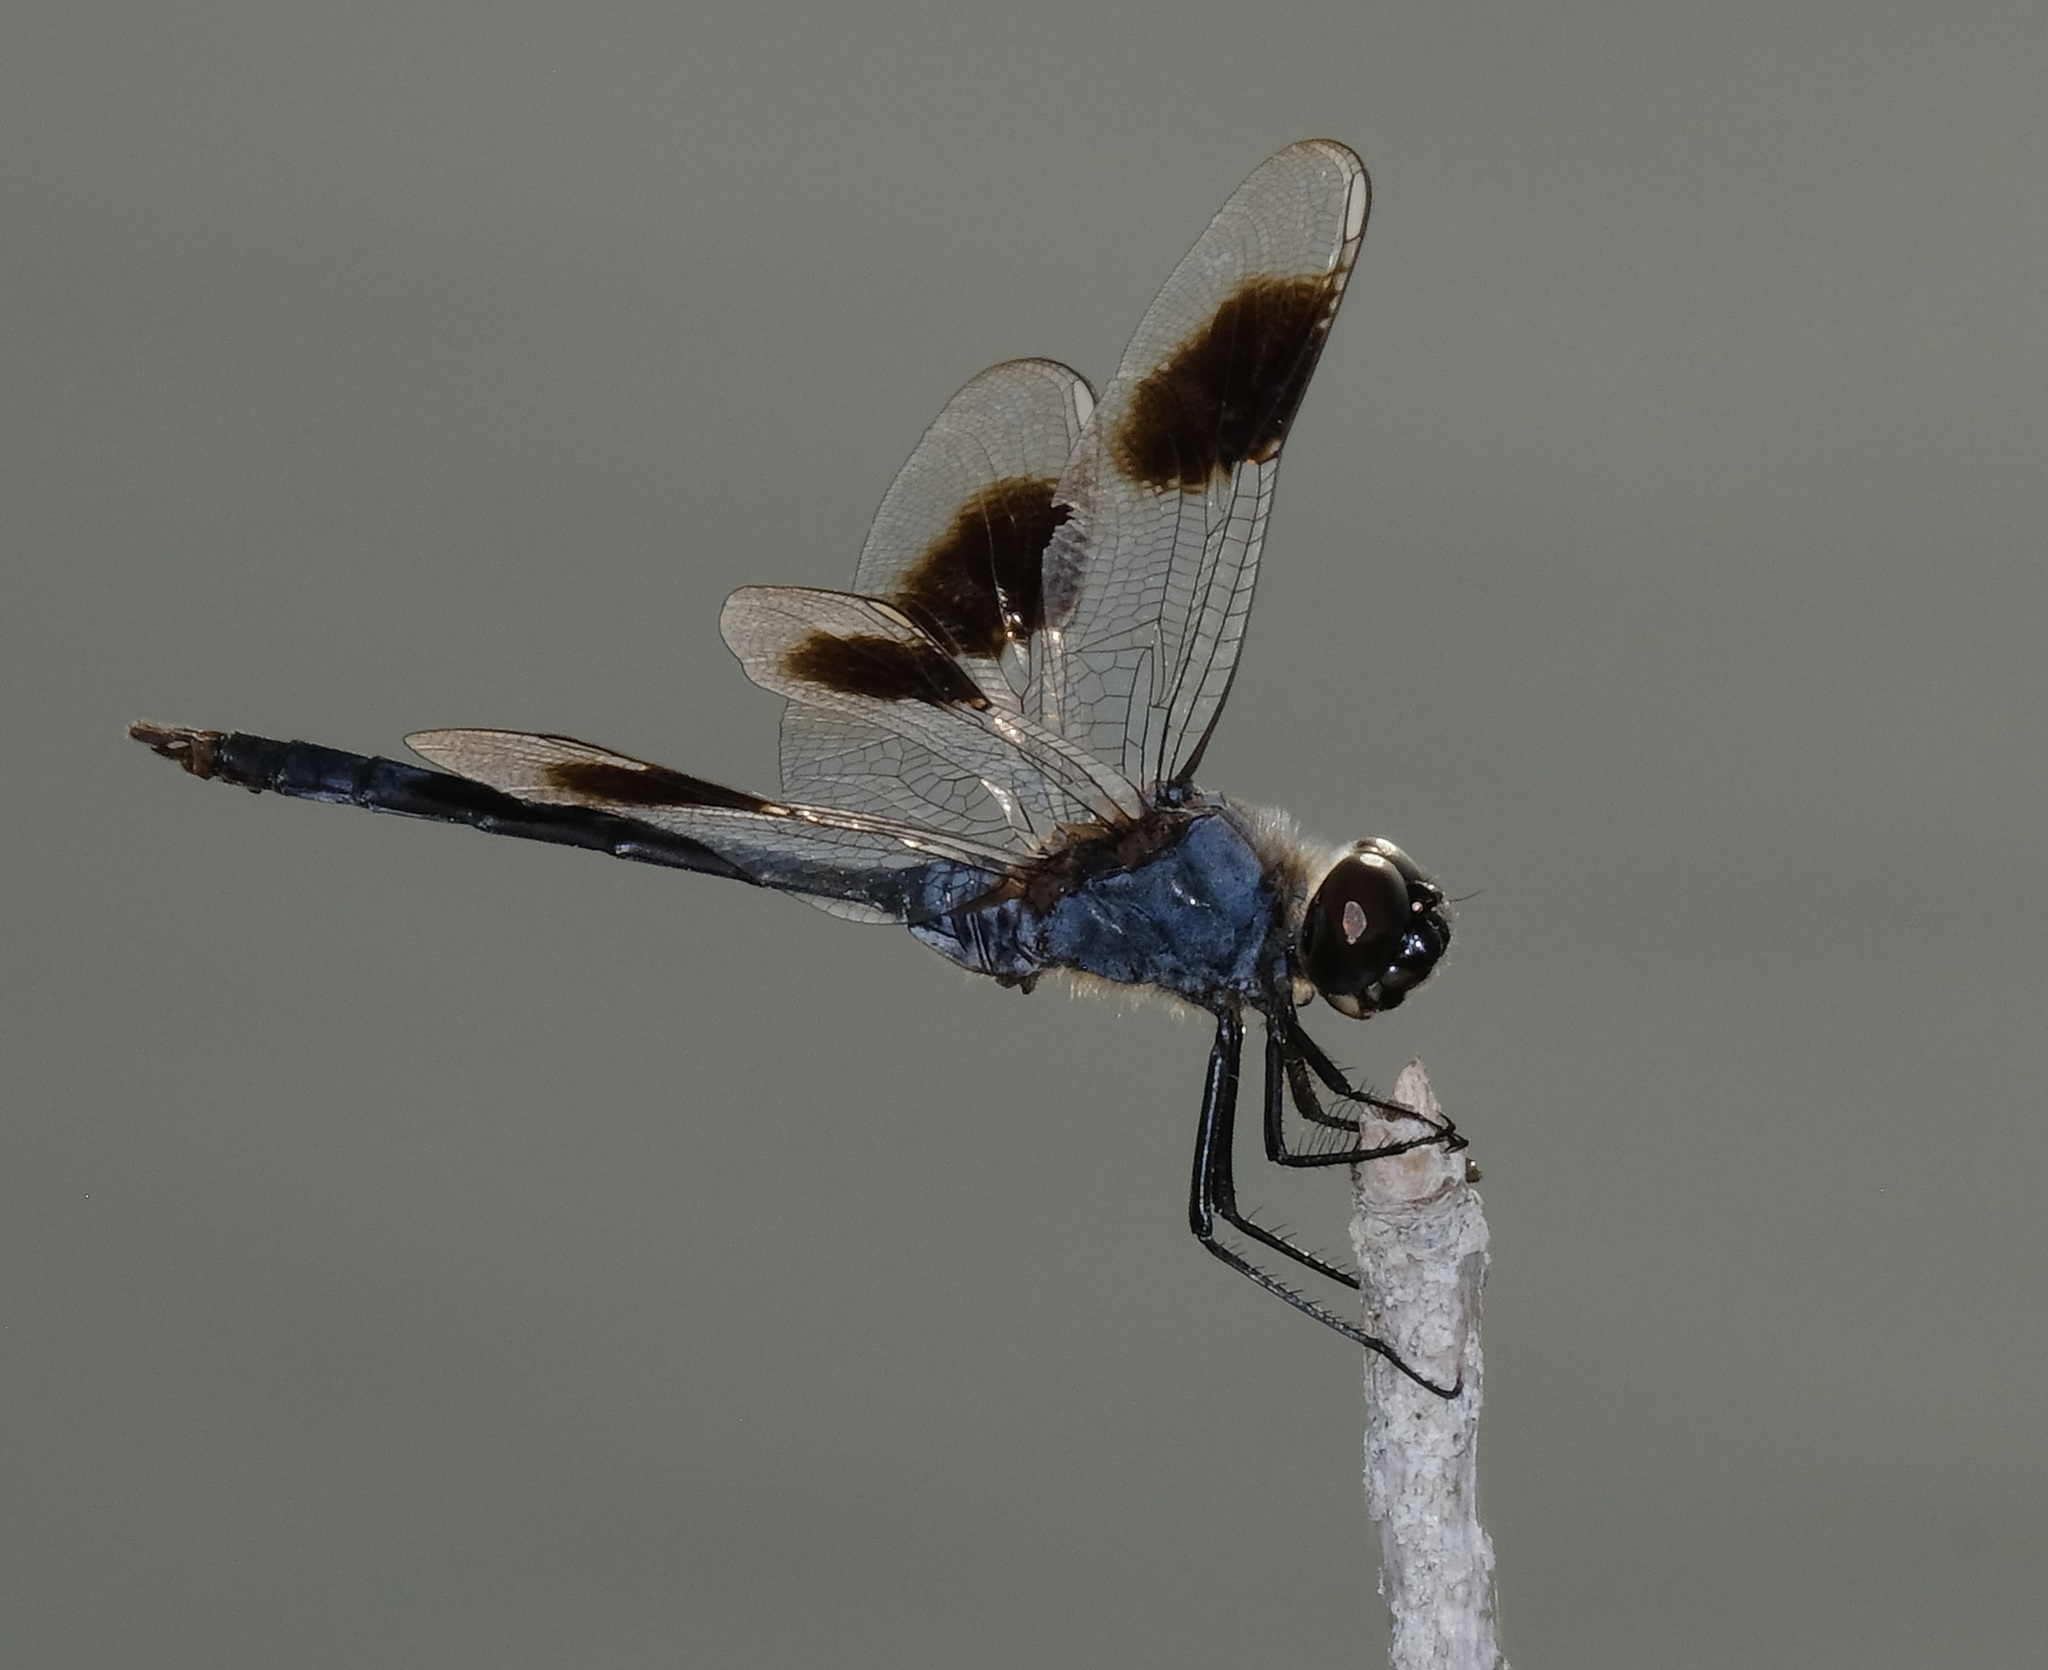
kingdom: Animalia
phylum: Arthropoda
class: Insecta
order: Odonata
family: Libellulidae
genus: Brachymesia
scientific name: Brachymesia gravida
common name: Four-spotted pennant
